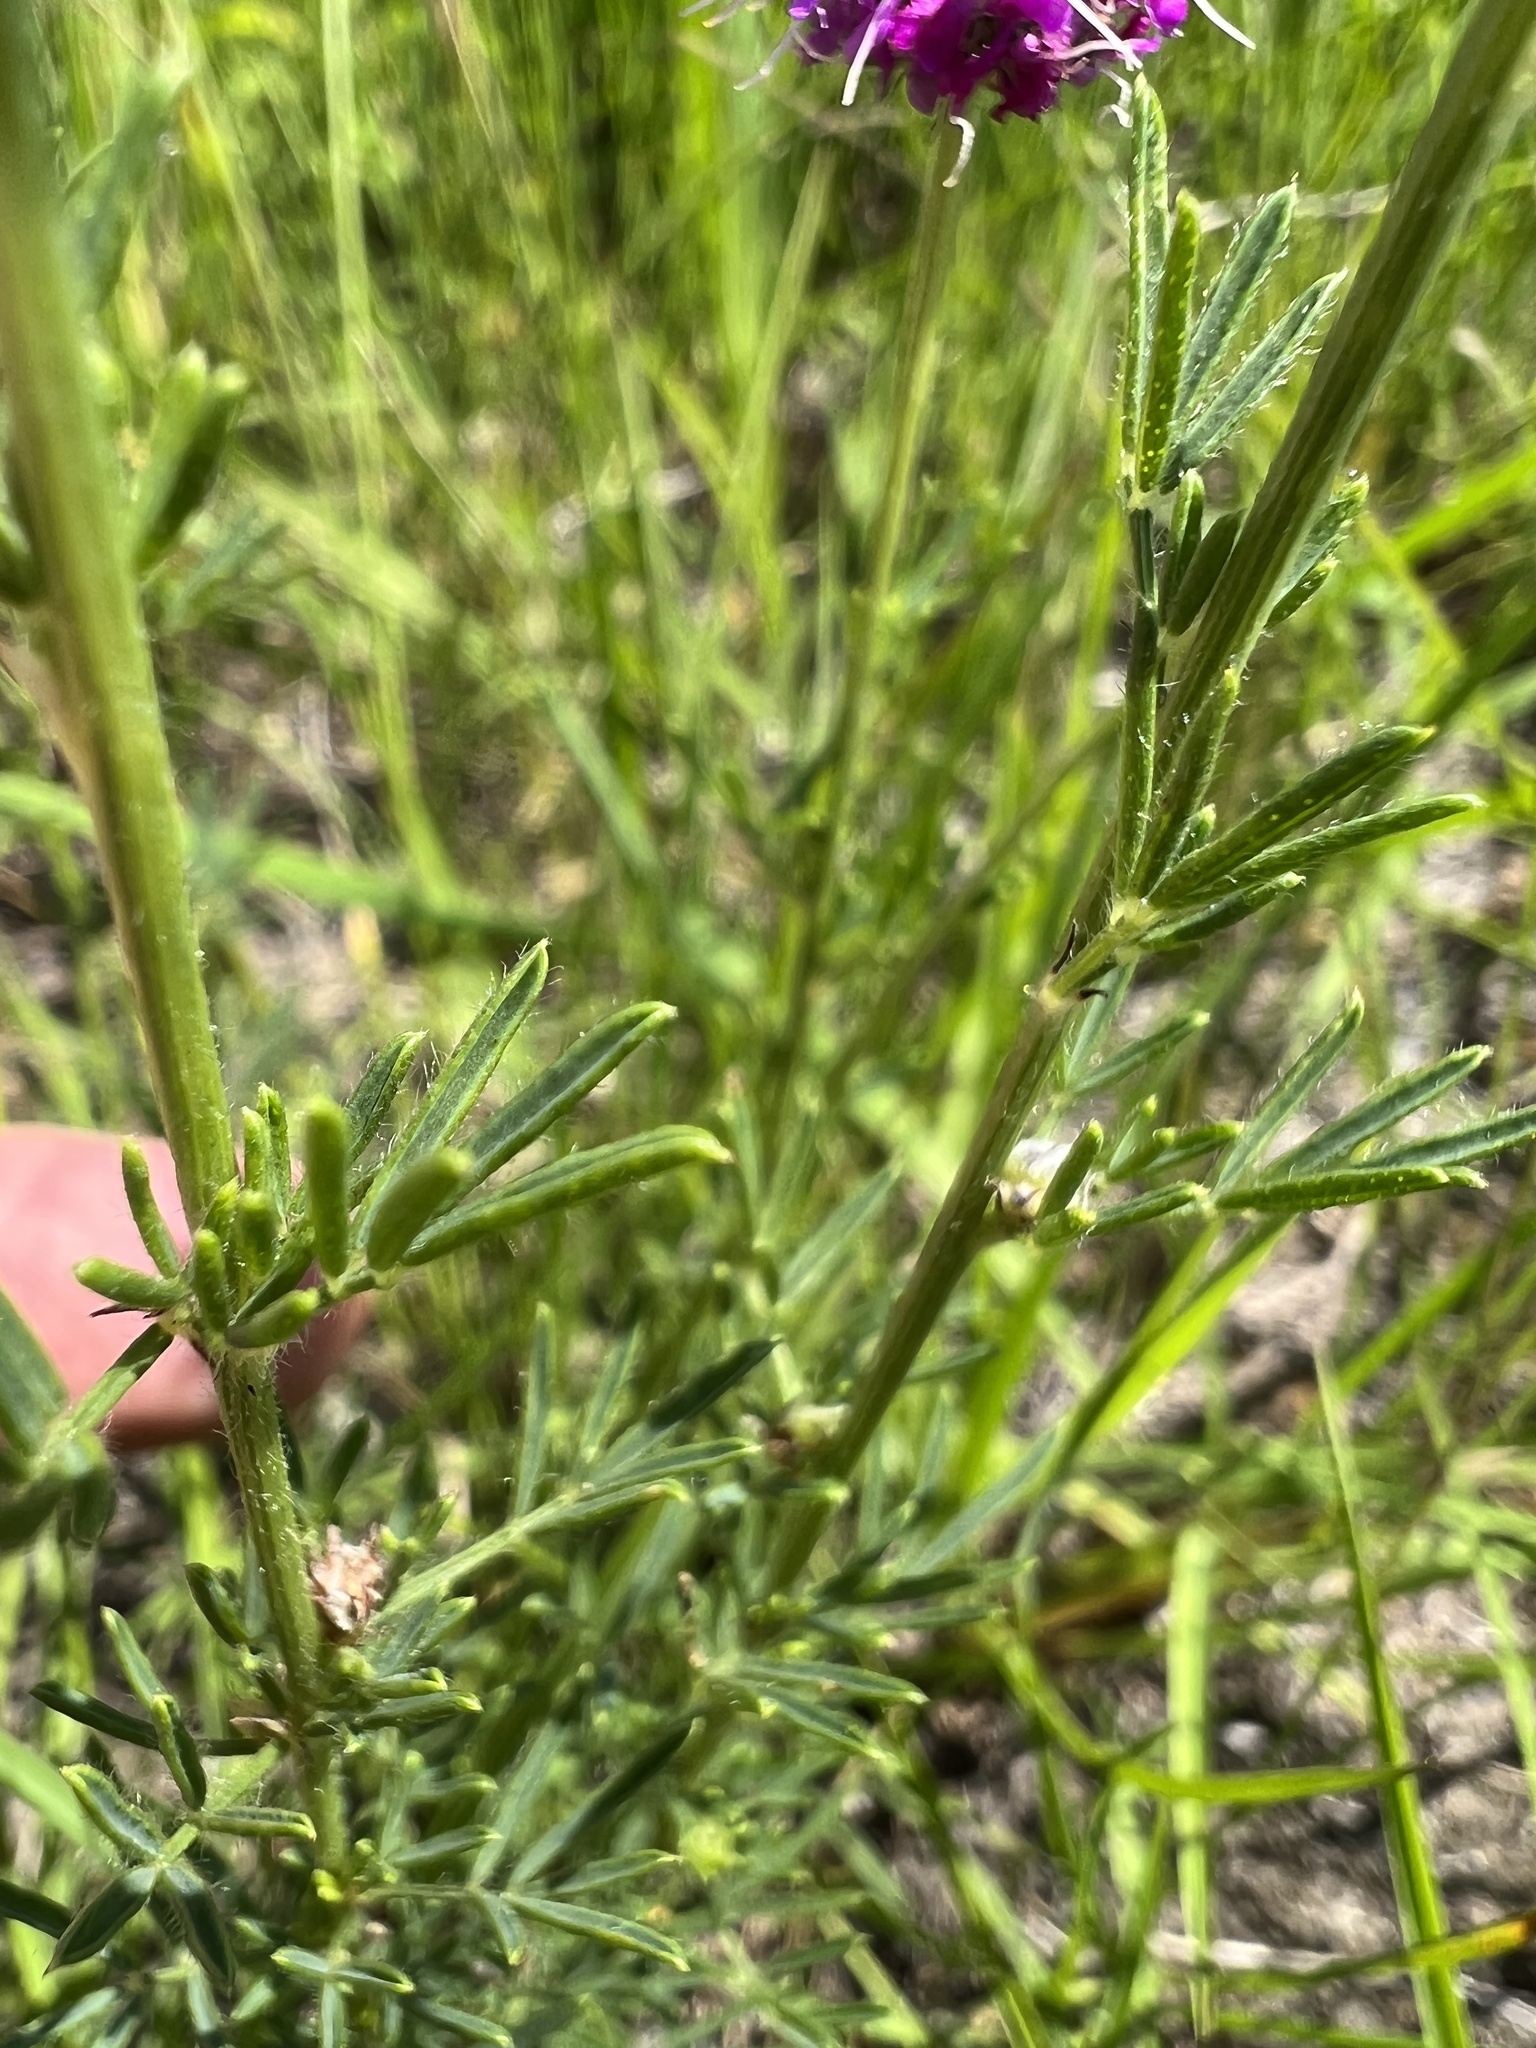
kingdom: Plantae
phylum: Tracheophyta
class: Magnoliopsida
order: Fabales
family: Fabaceae
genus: Dalea
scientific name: Dalea purpurea
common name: Purple prairie-clover
